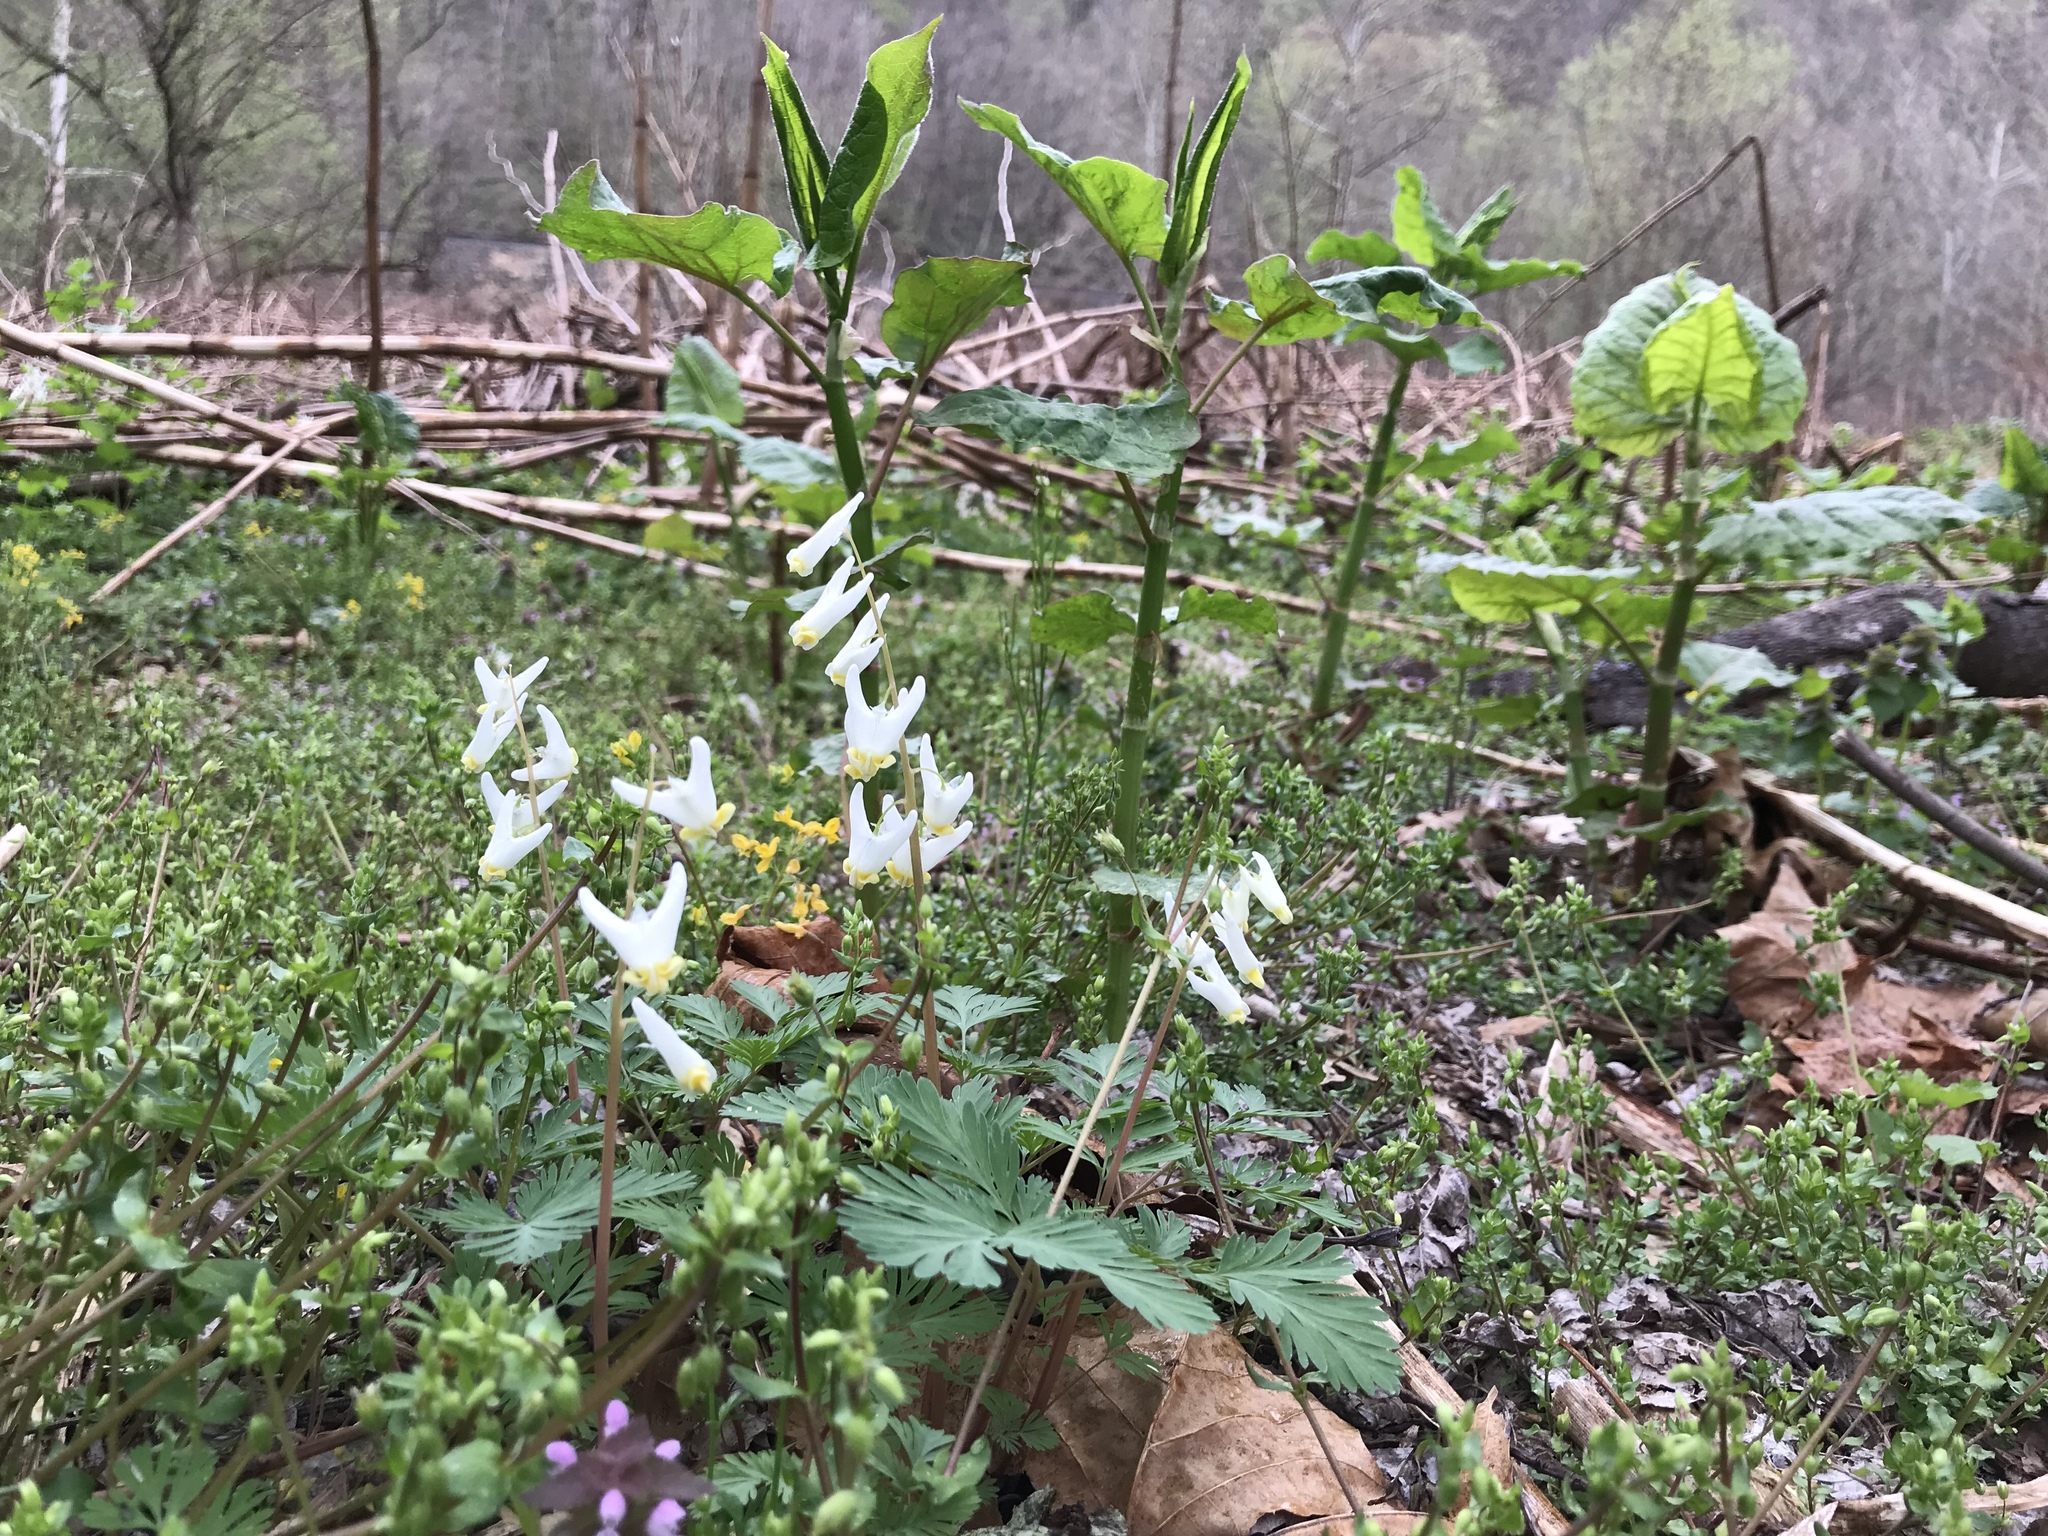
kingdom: Plantae
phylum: Tracheophyta
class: Magnoliopsida
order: Ranunculales
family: Papaveraceae
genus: Dicentra
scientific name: Dicentra cucullaria
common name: Dutchman's breeches
